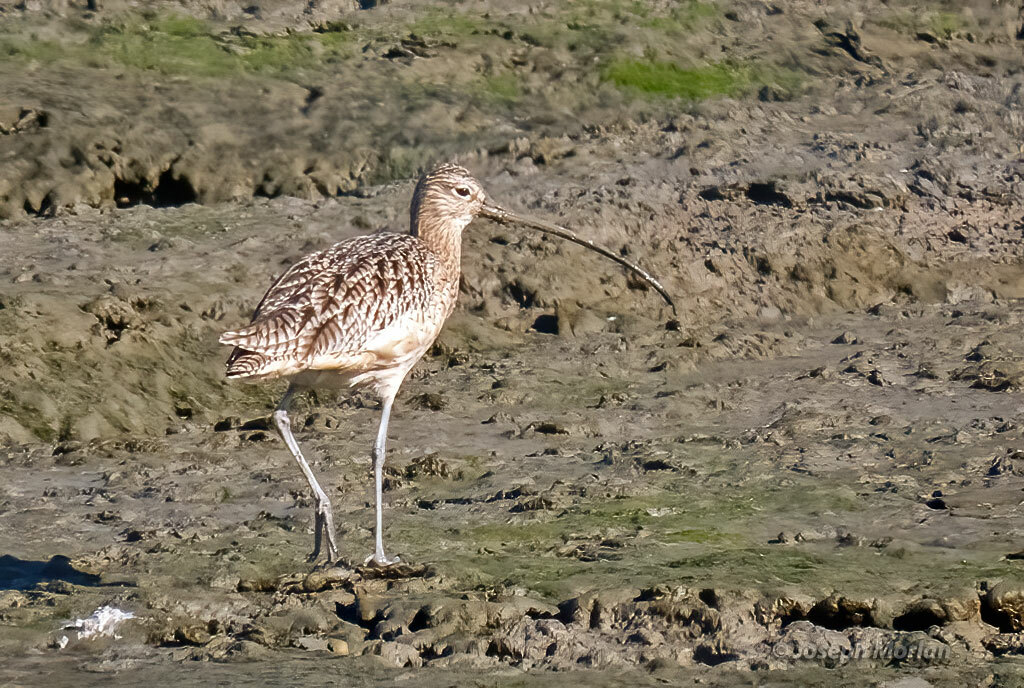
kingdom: Animalia
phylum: Chordata
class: Aves
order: Charadriiformes
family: Scolopacidae
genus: Numenius
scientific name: Numenius americanus
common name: Long-billed curlew
